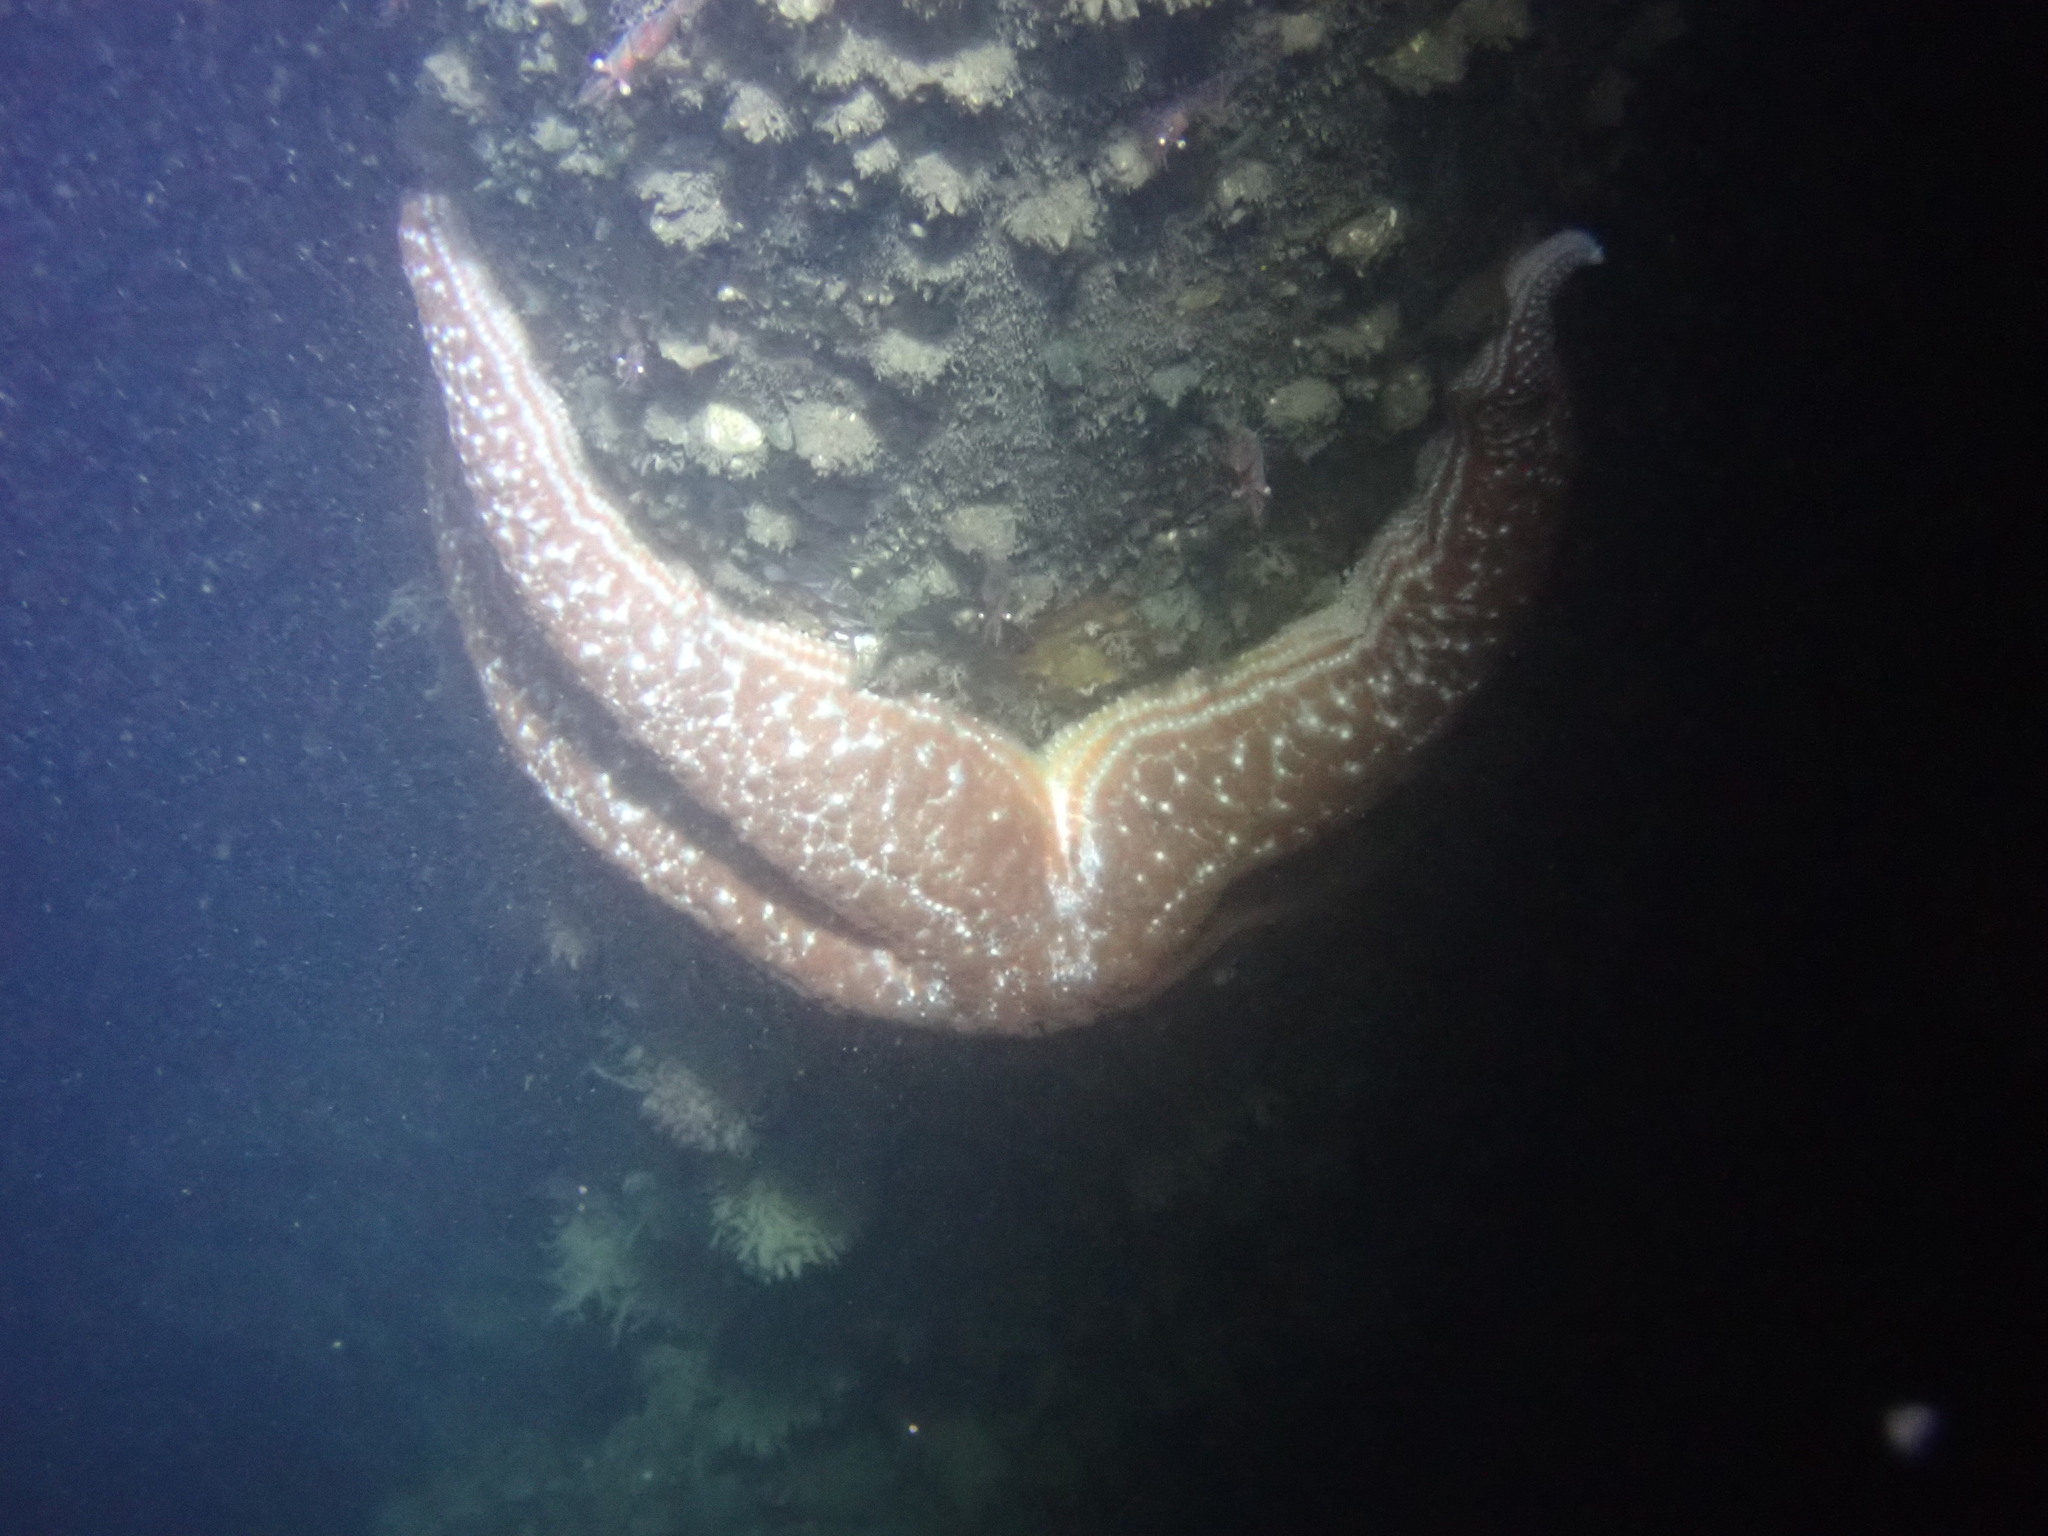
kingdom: Animalia
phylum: Echinodermata
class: Asteroidea
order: Forcipulatida
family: Asteriidae
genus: Evasterias
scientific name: Evasterias troschelii
